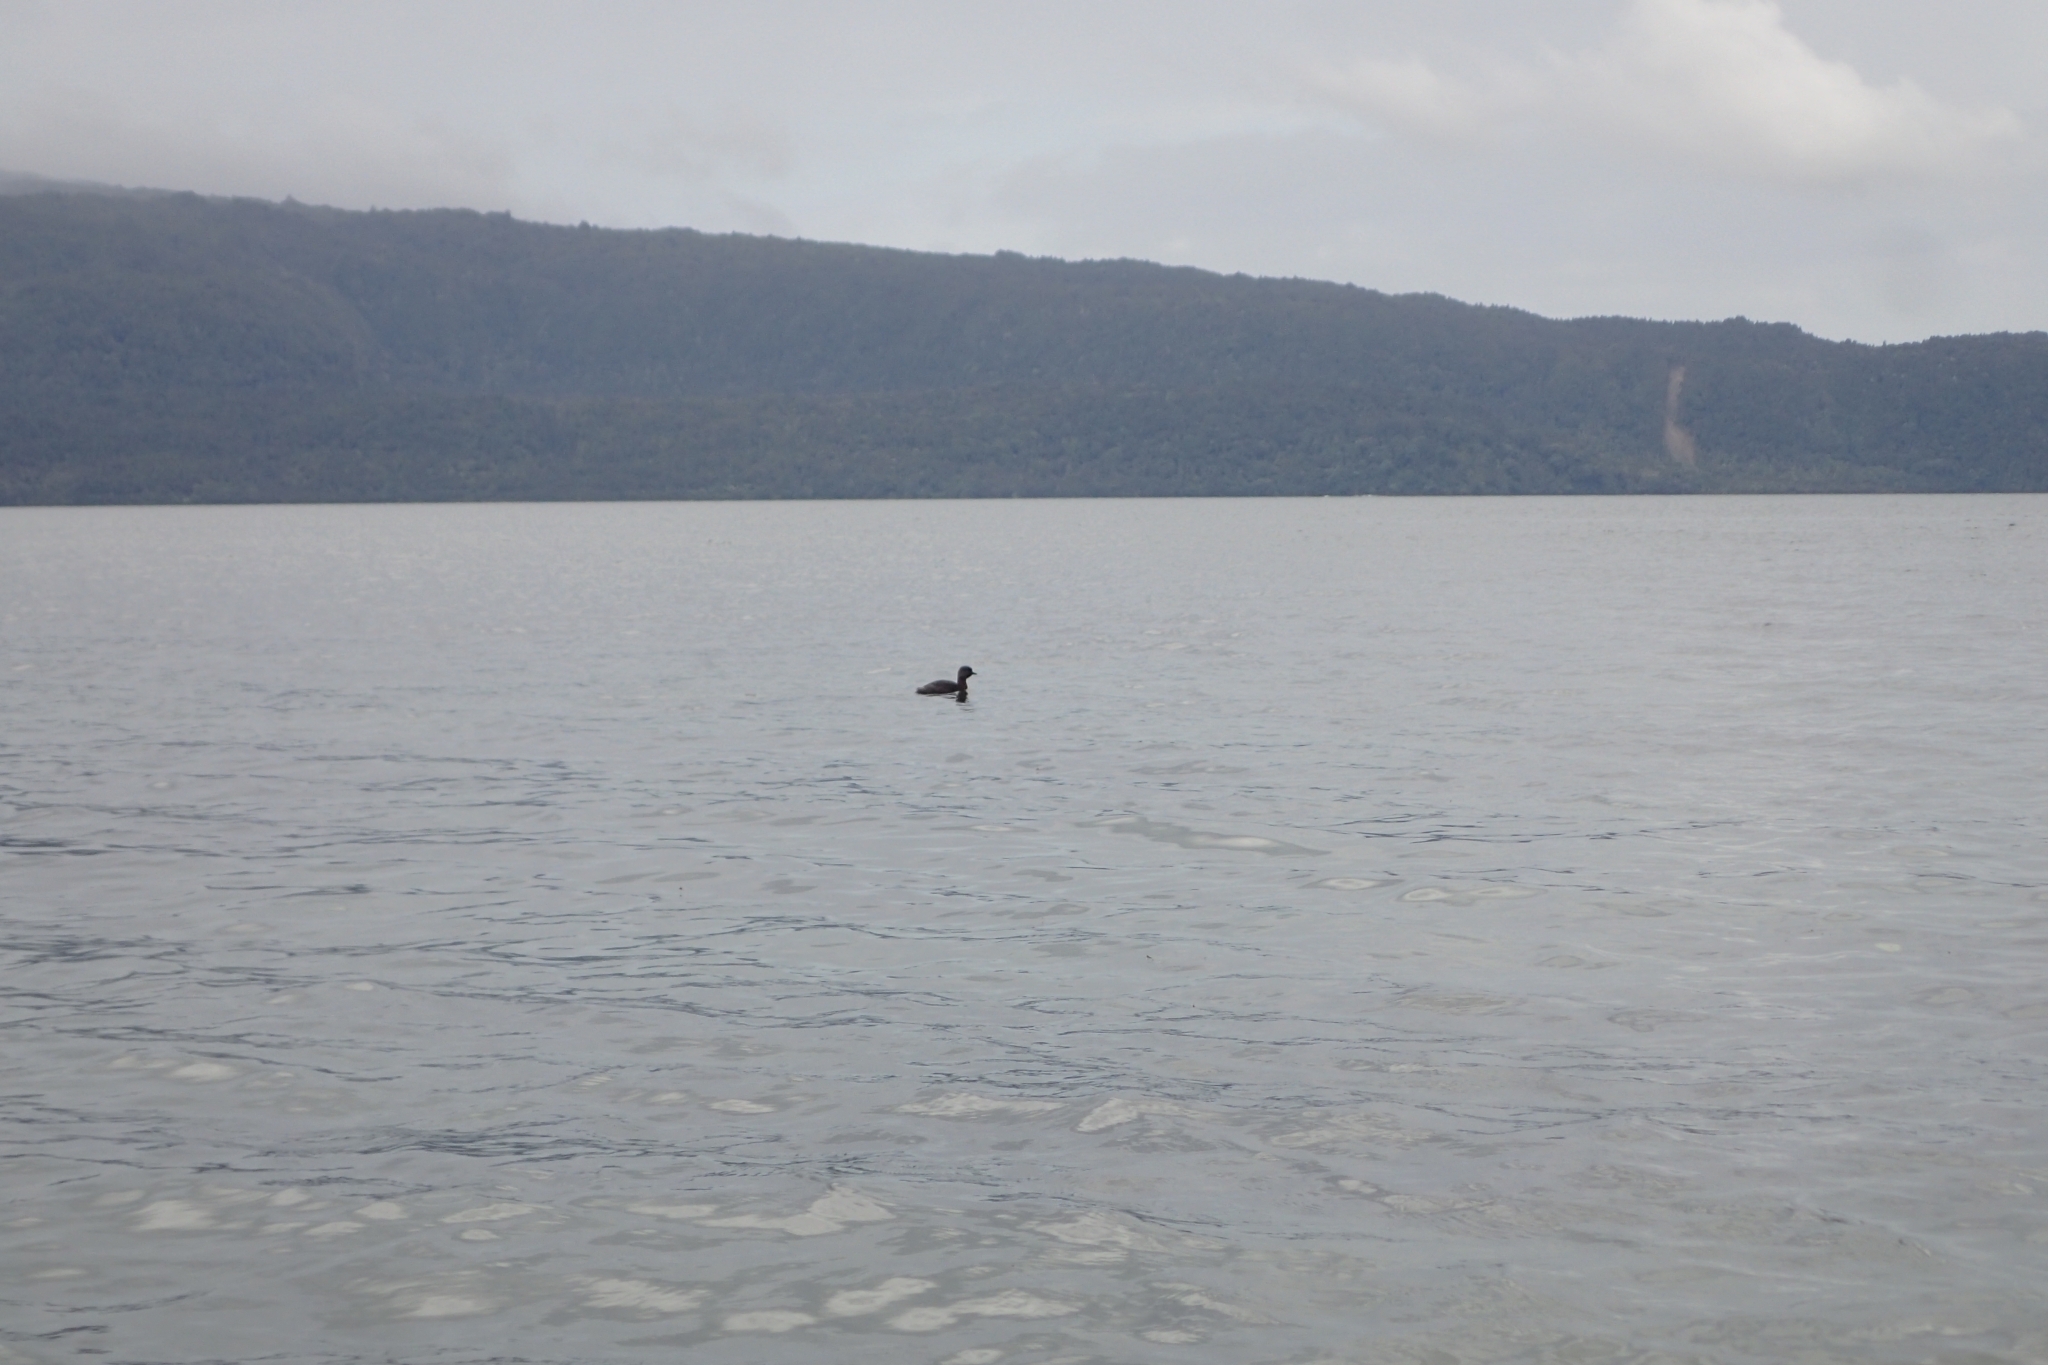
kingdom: Animalia
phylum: Chordata
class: Aves
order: Podicipediformes
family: Podicipedidae
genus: Poliocephalus
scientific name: Poliocephalus rufopectus
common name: New zealand grebe
